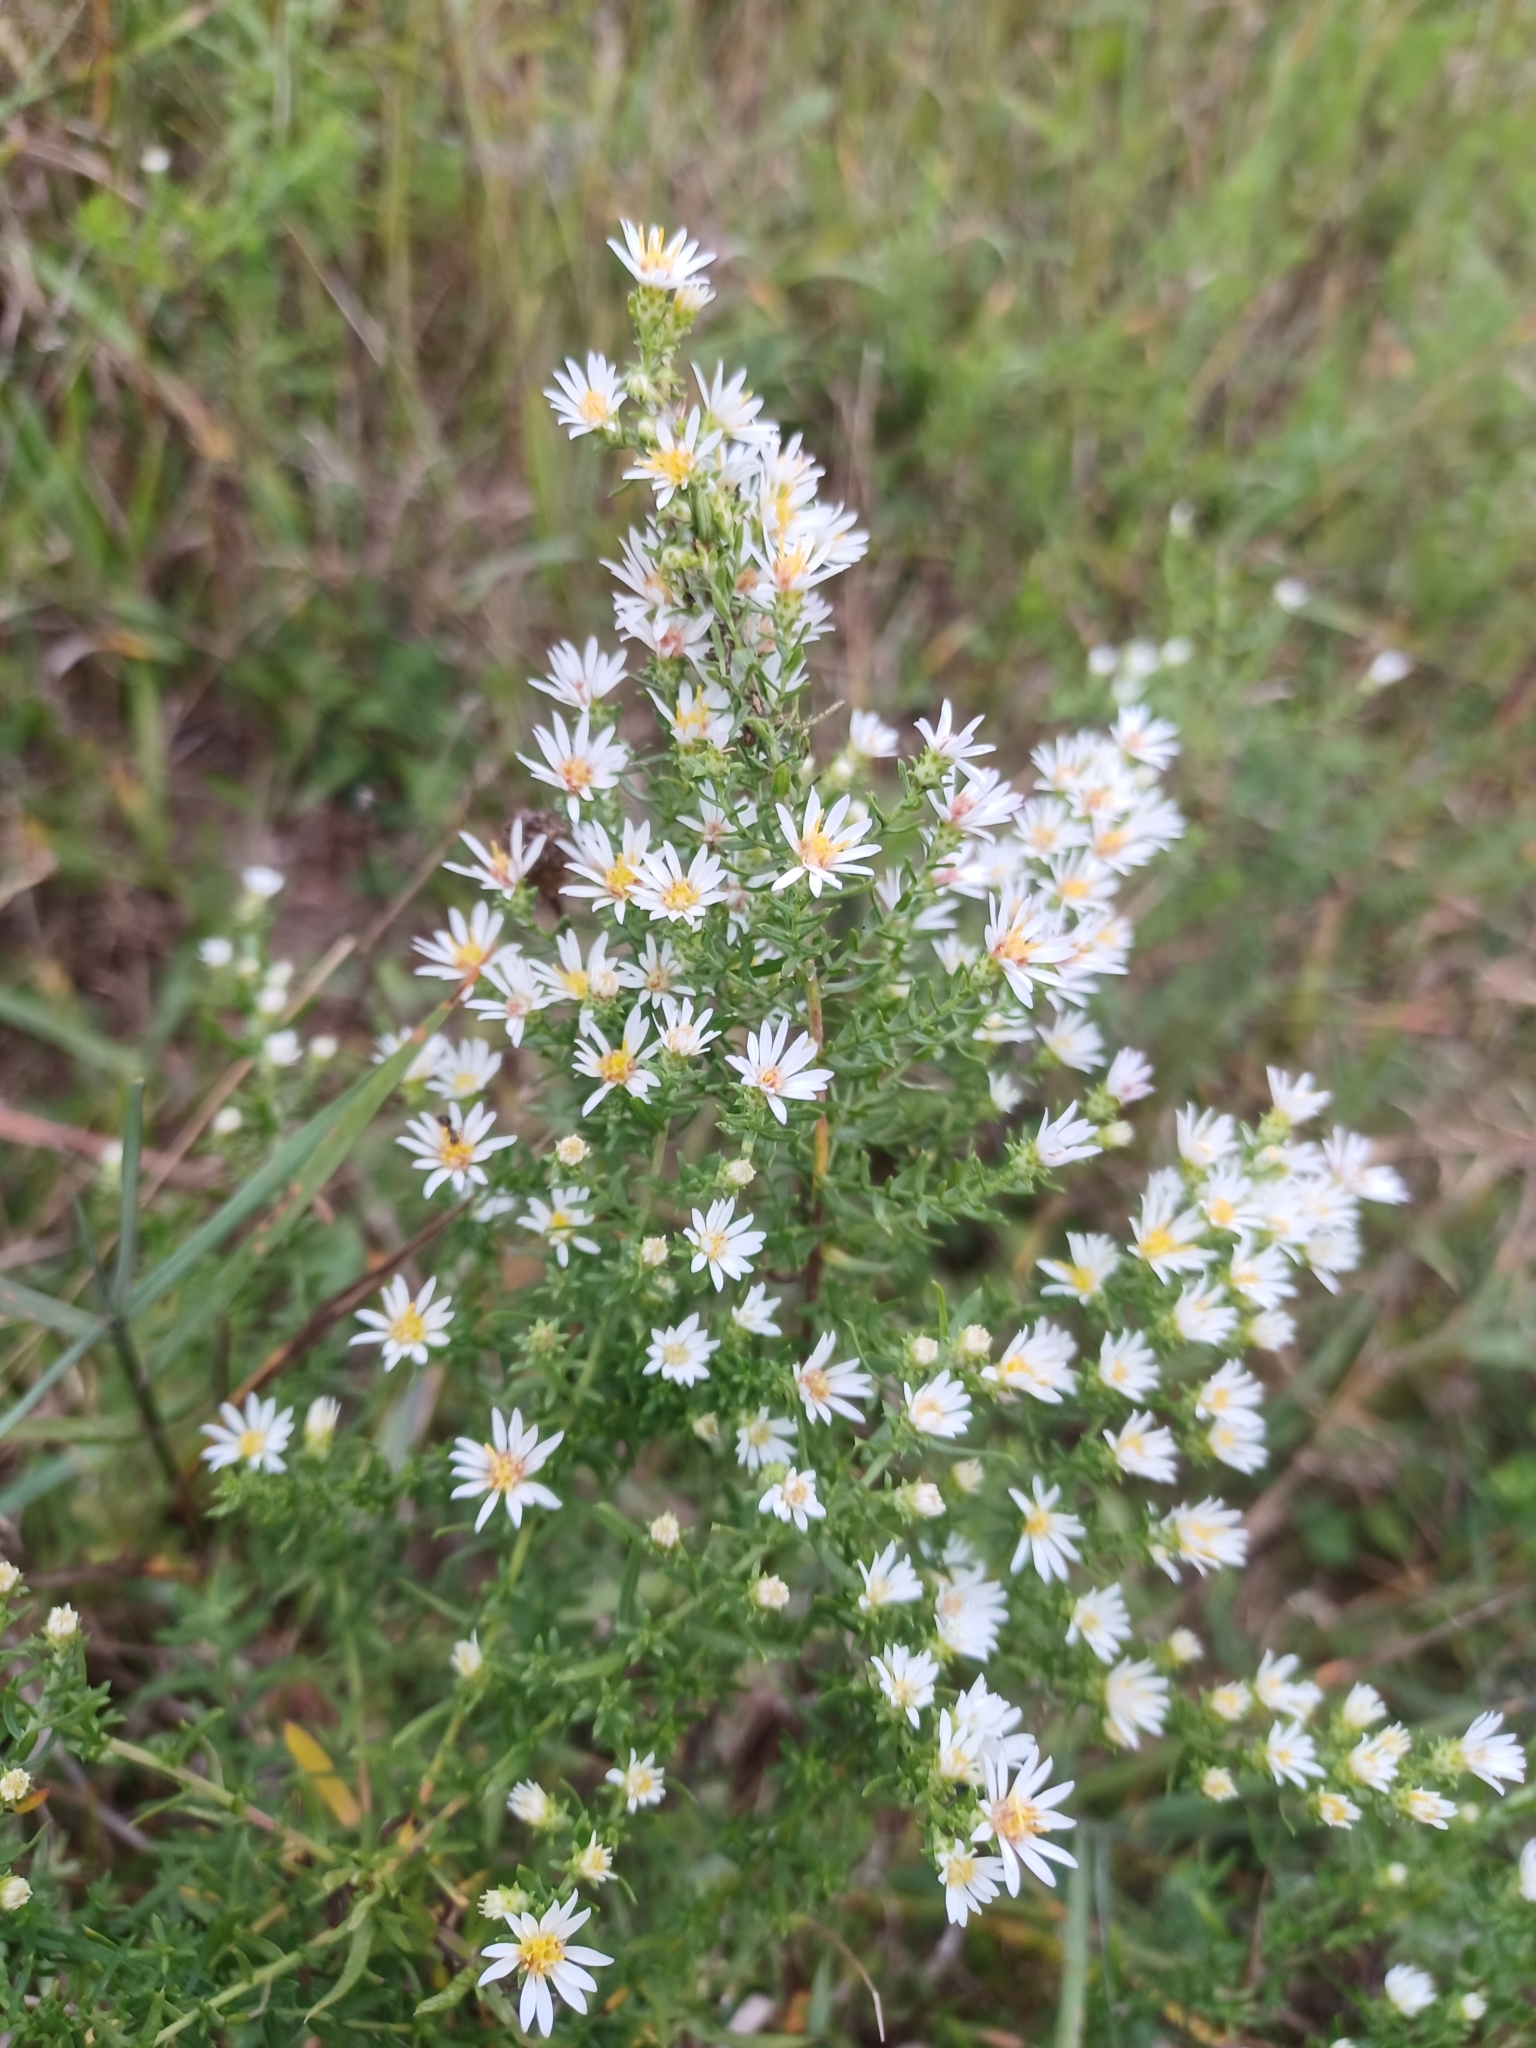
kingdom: Plantae
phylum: Tracheophyta
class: Magnoliopsida
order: Asterales
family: Asteraceae
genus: Symphyotrichum
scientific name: Symphyotrichum ericoides
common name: Heath aster
